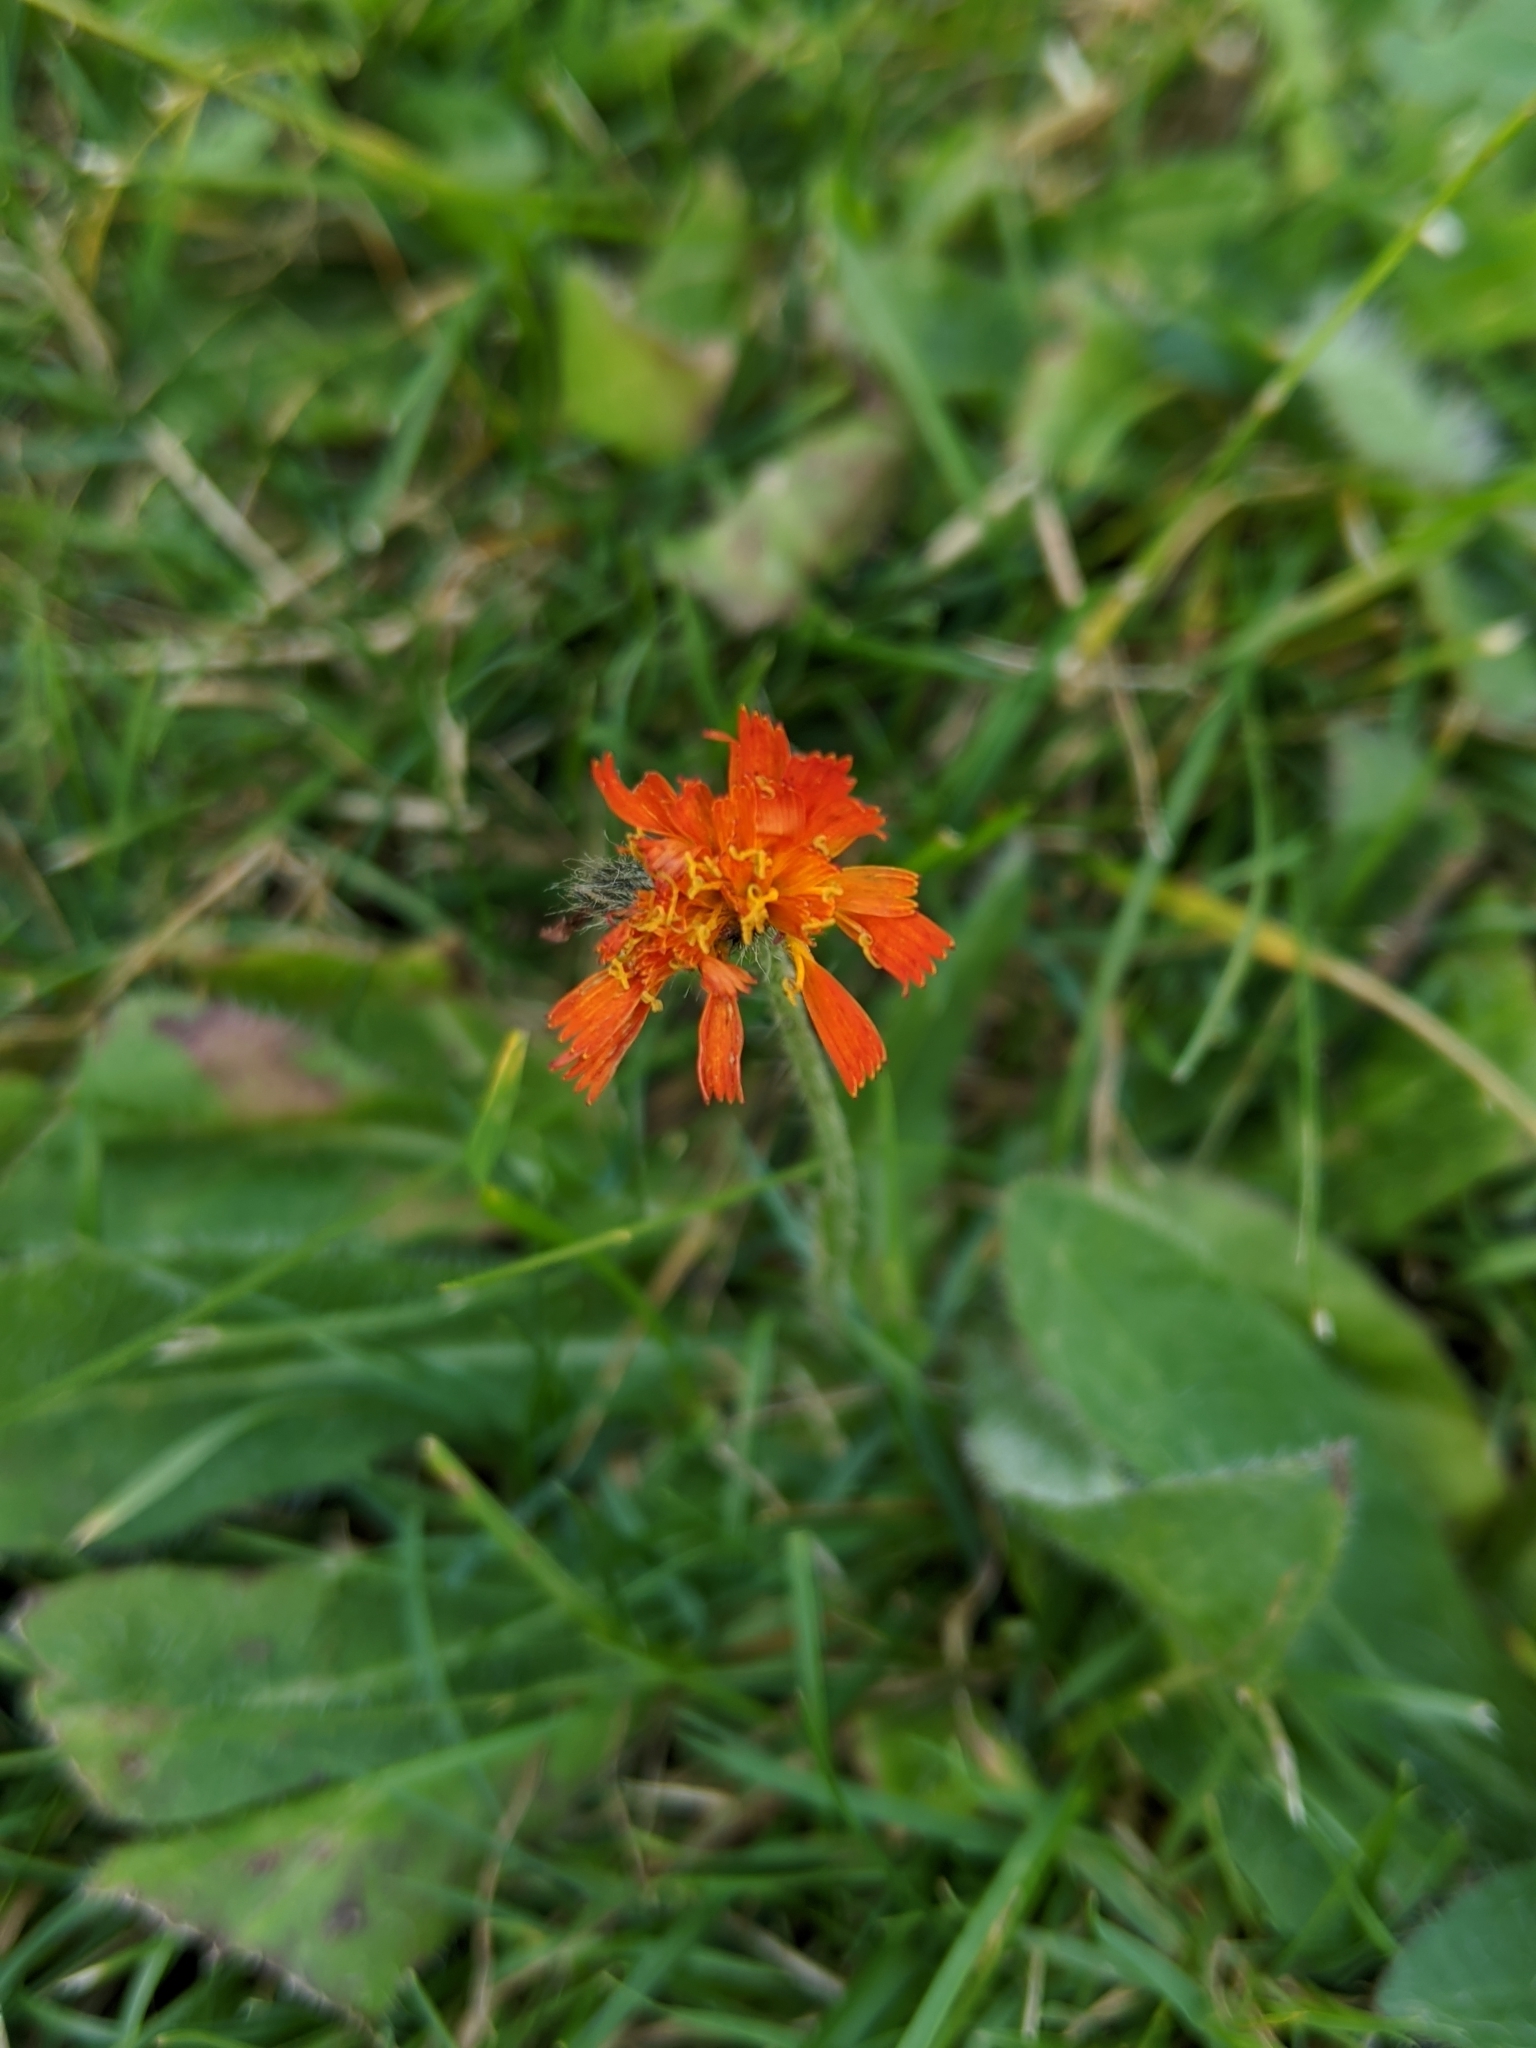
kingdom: Plantae
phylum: Tracheophyta
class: Magnoliopsida
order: Asterales
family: Asteraceae
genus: Pilosella
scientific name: Pilosella aurantiaca
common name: Fox-and-cubs
